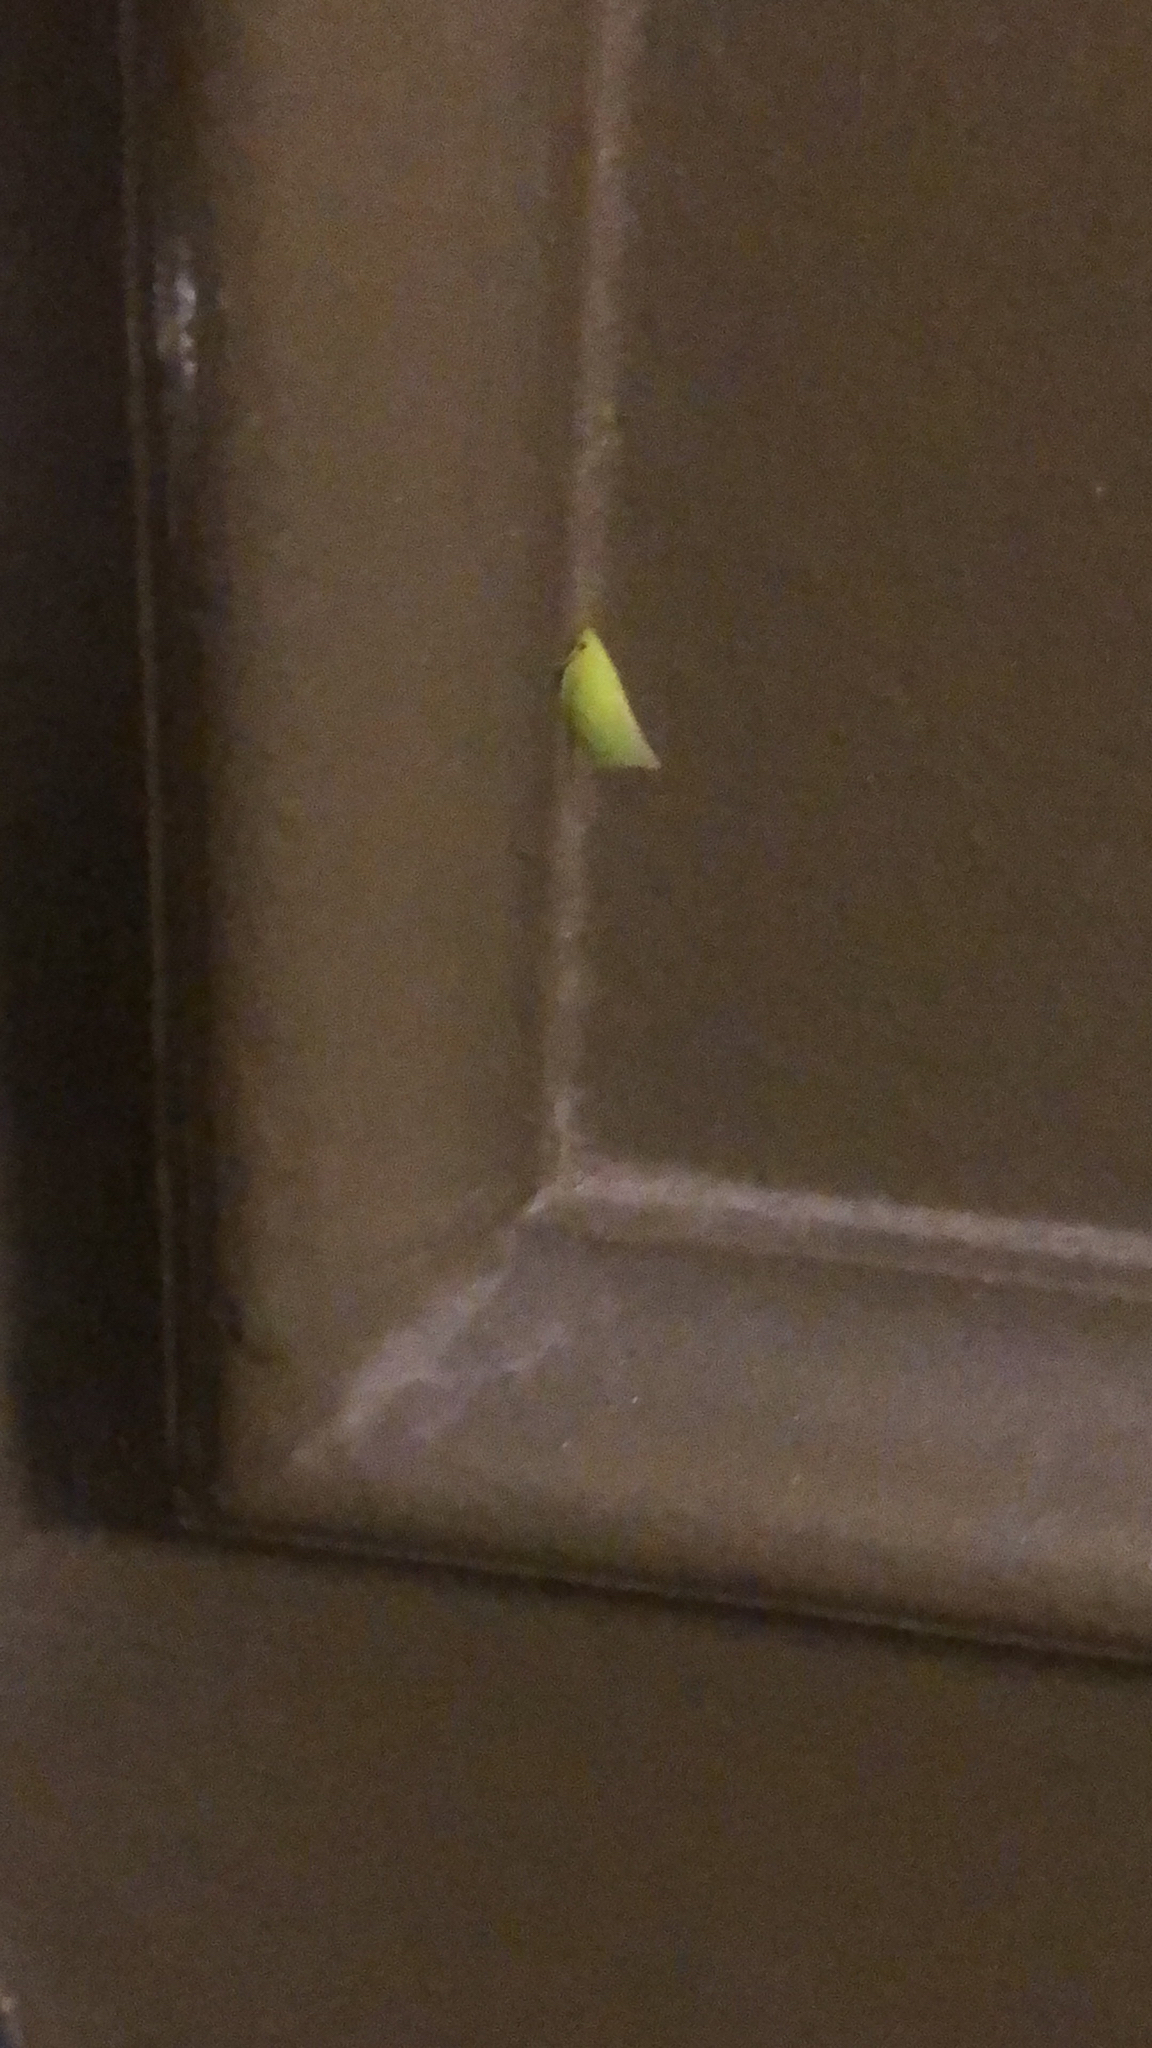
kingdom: Animalia
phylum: Arthropoda
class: Insecta
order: Hemiptera
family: Flatidae
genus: Siphanta
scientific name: Siphanta acuta
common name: Torpedo bug
